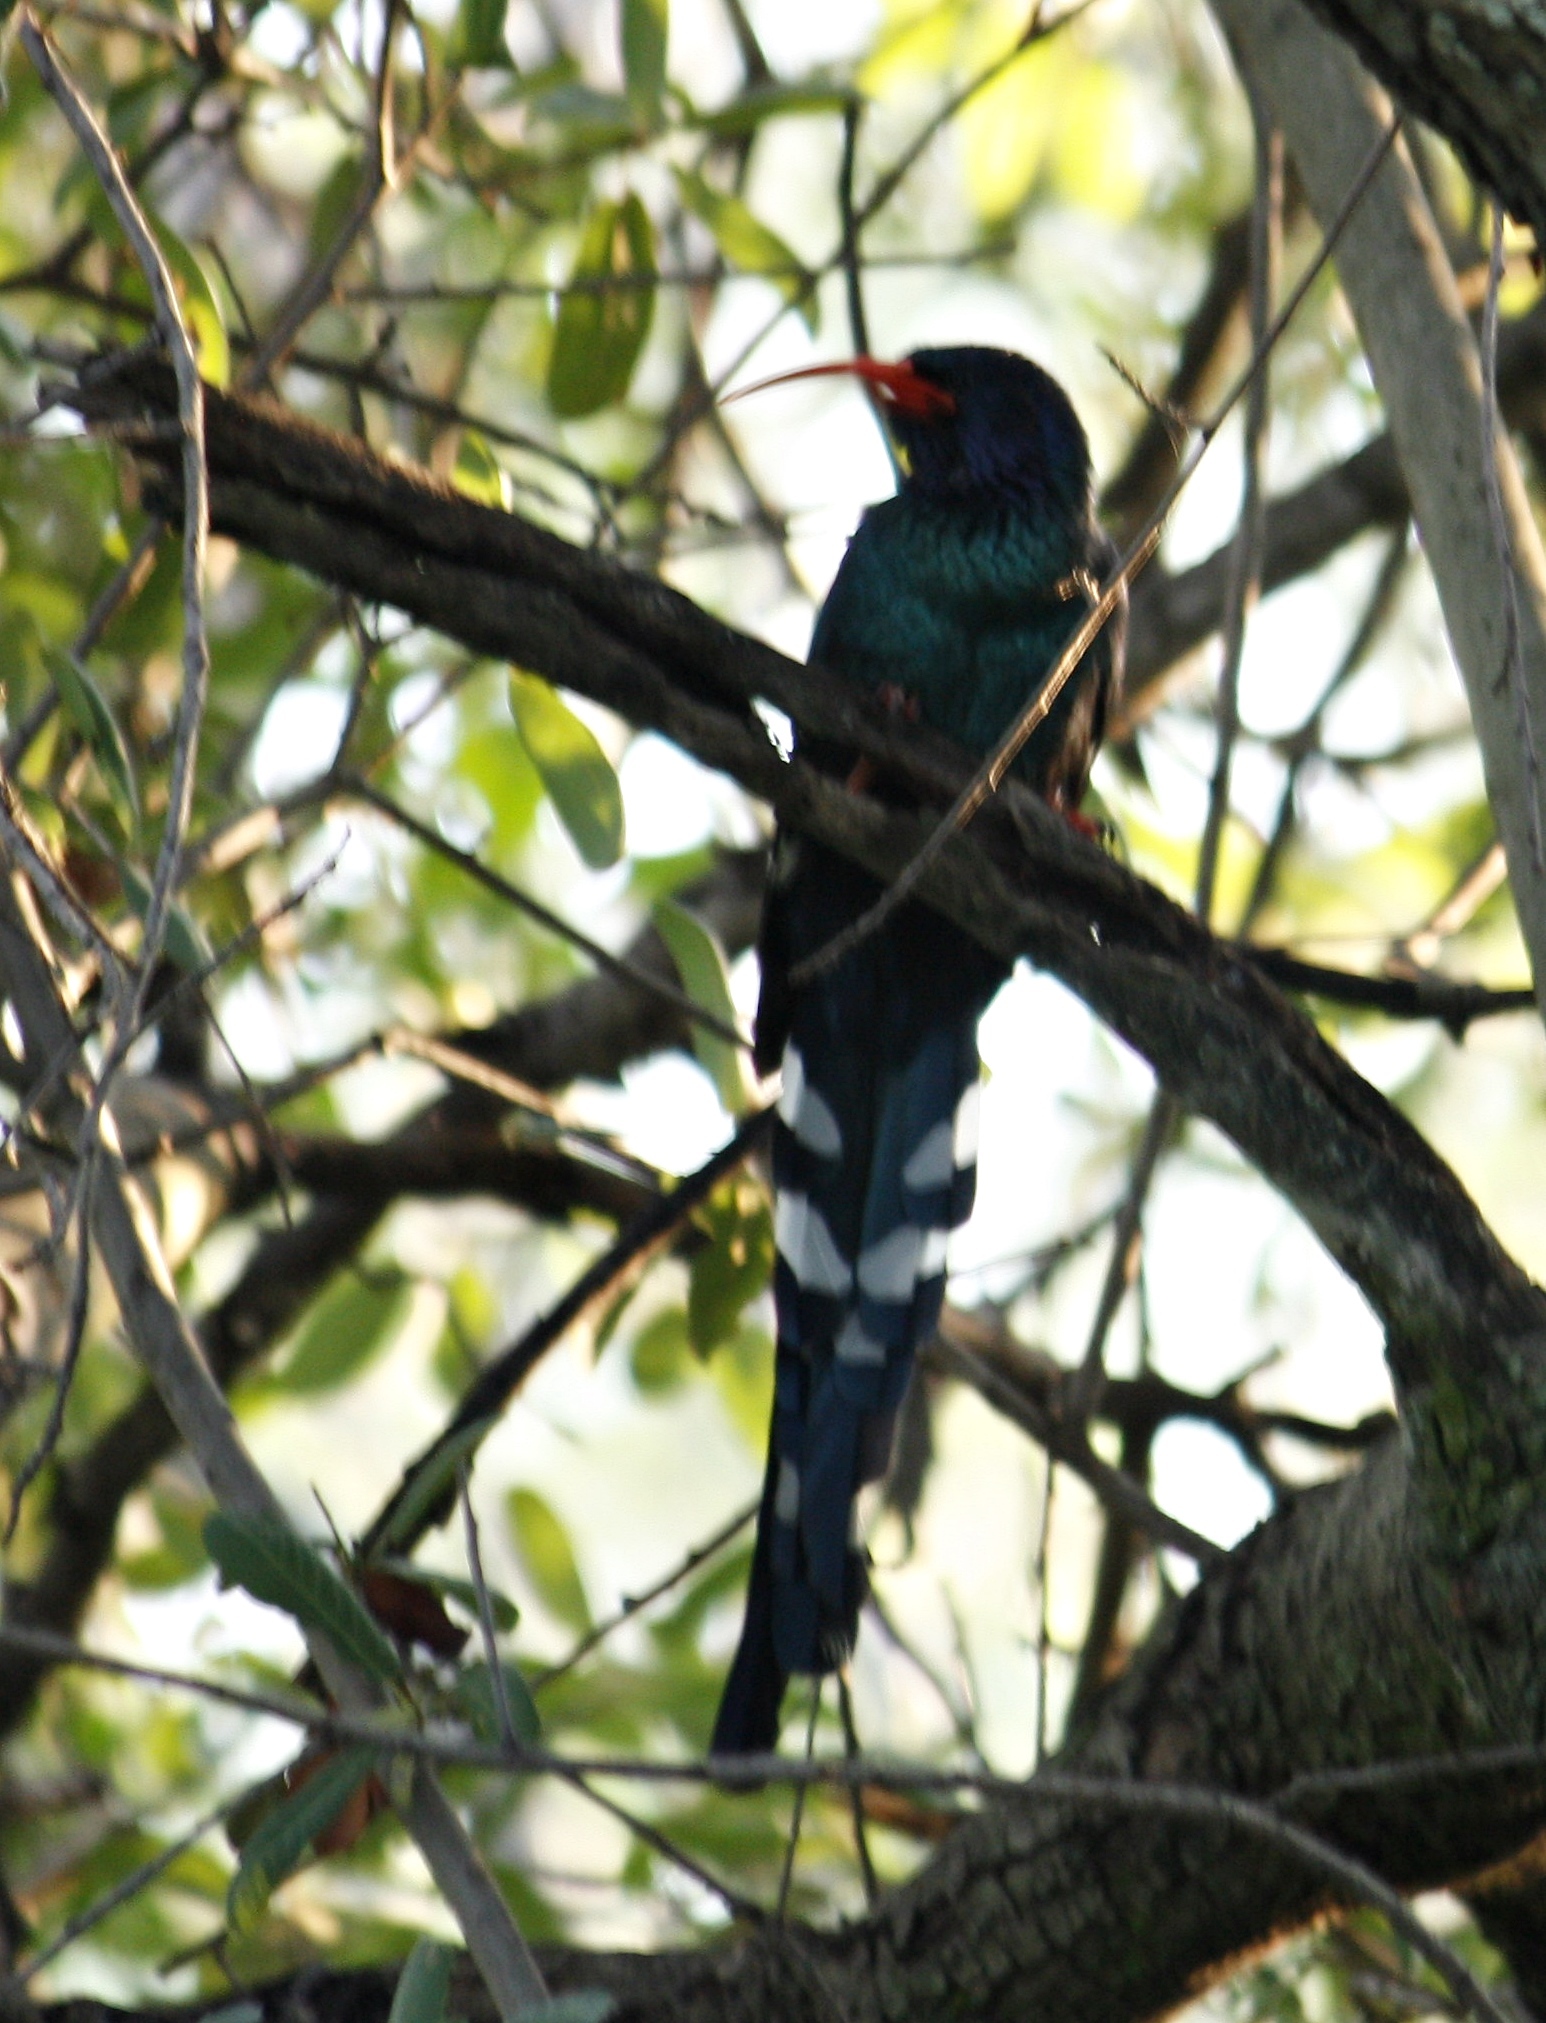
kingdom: Animalia
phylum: Chordata
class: Aves
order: Bucerotiformes
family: Phoeniculidae
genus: Phoeniculus
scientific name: Phoeniculus purpureus
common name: Green woodhoopoe
